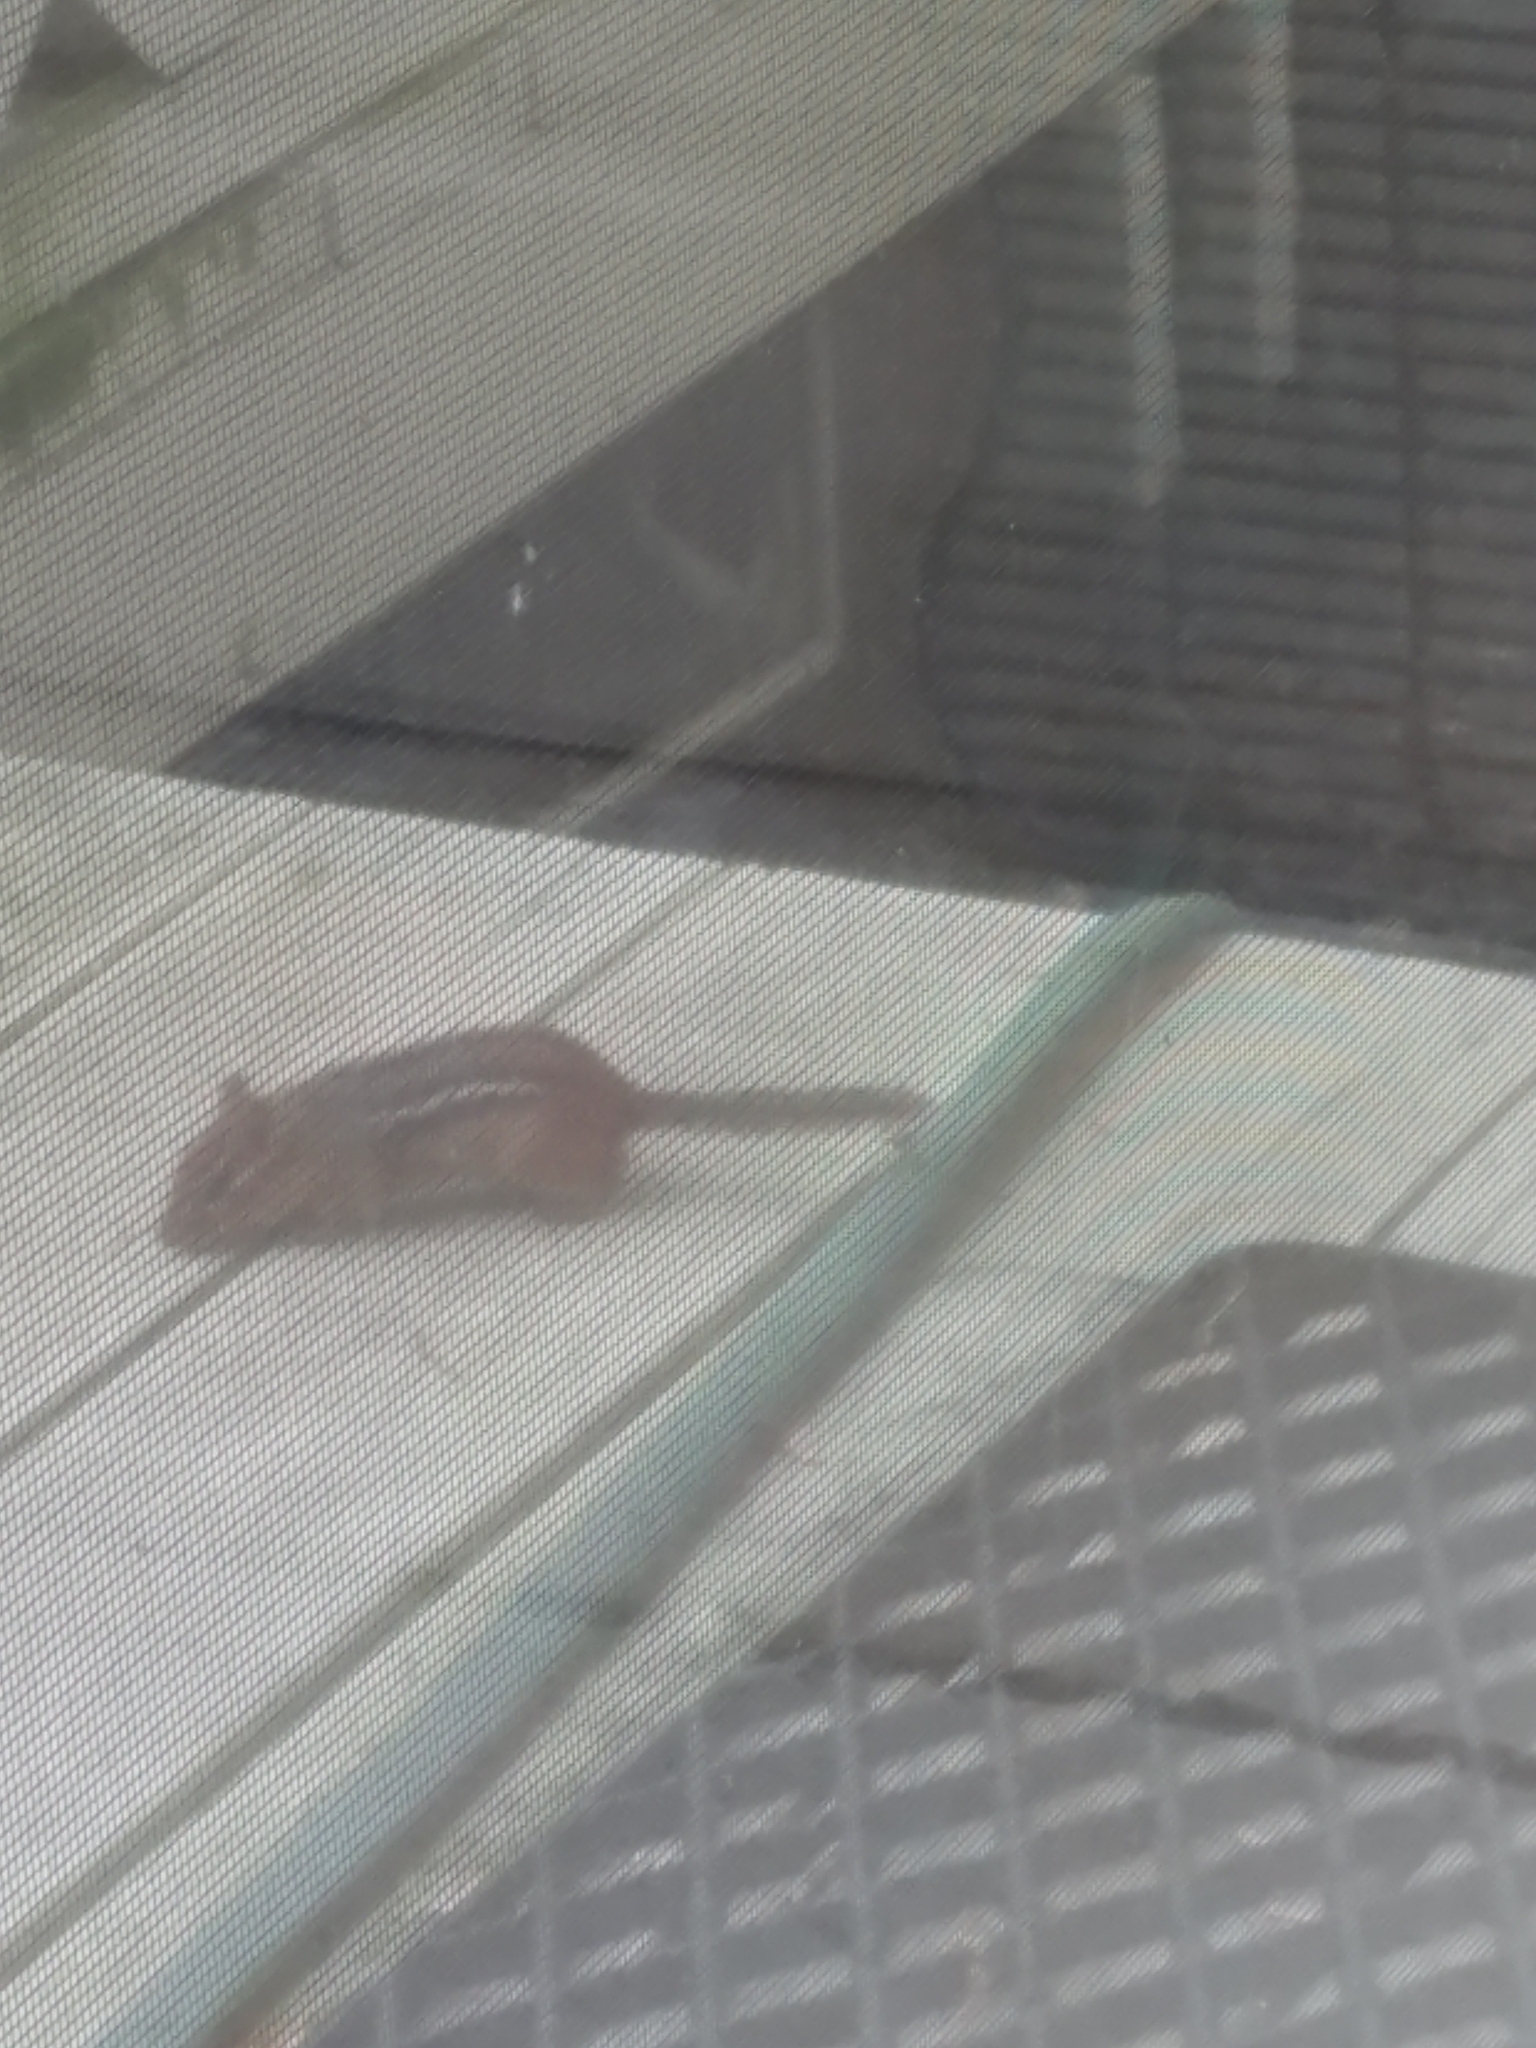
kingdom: Animalia
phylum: Chordata
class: Mammalia
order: Rodentia
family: Sciuridae
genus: Tamias
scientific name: Tamias striatus
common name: Eastern chipmunk
